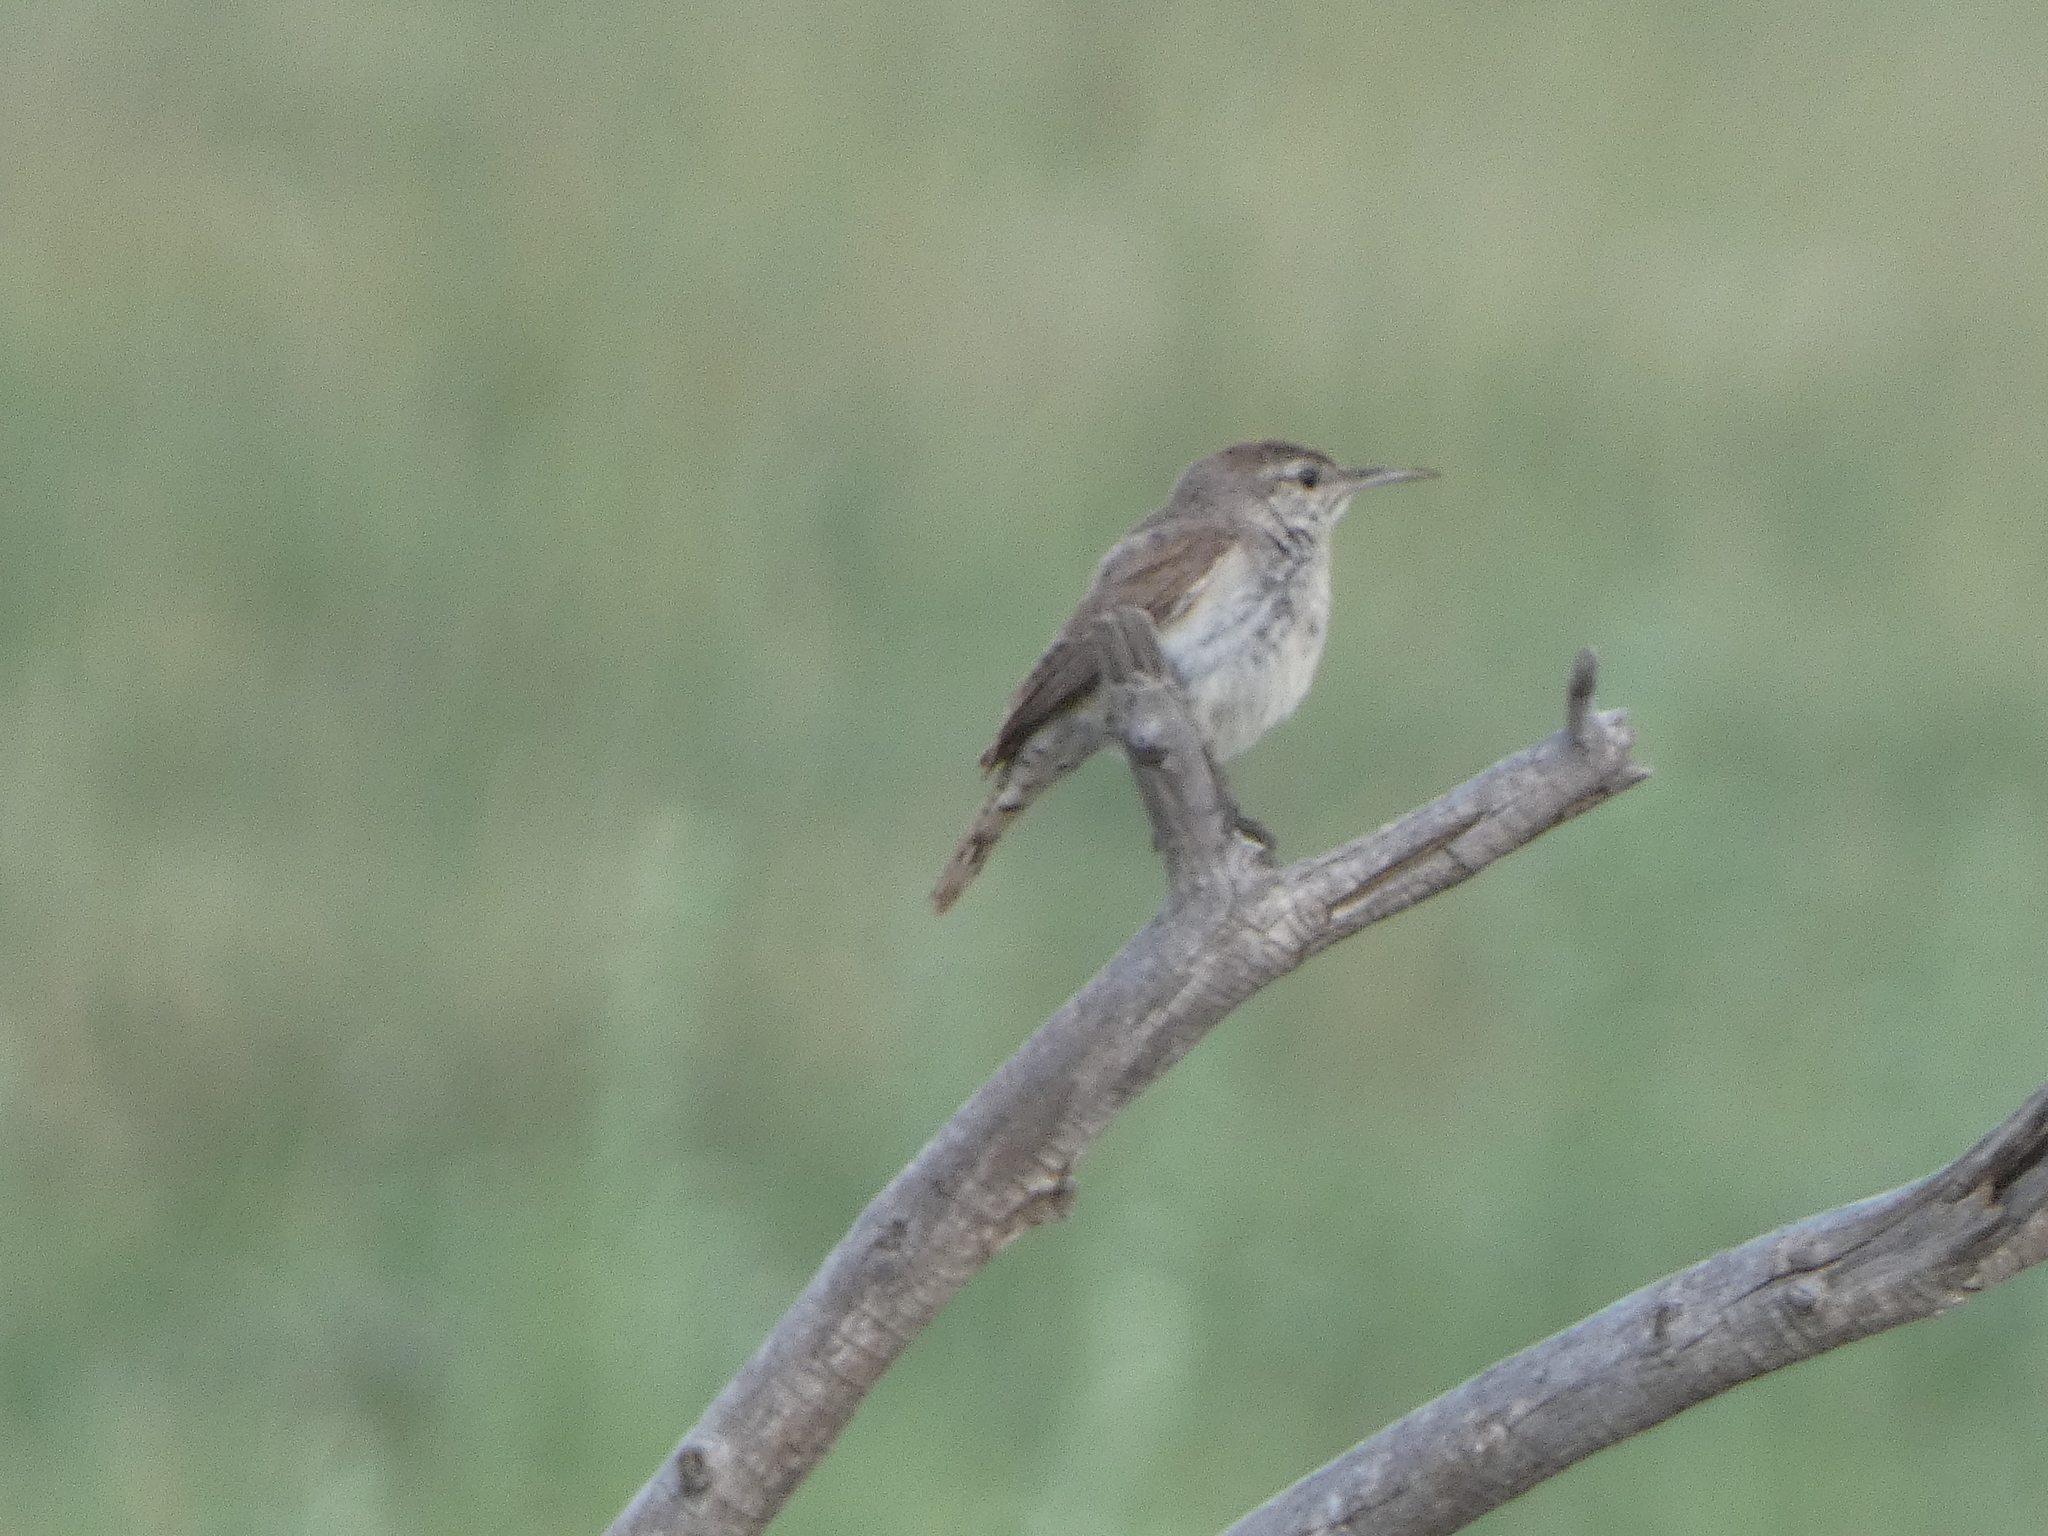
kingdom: Animalia
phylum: Chordata
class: Aves
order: Passeriformes
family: Troglodytidae
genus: Troglodytes
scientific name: Troglodytes aedon
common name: House wren
